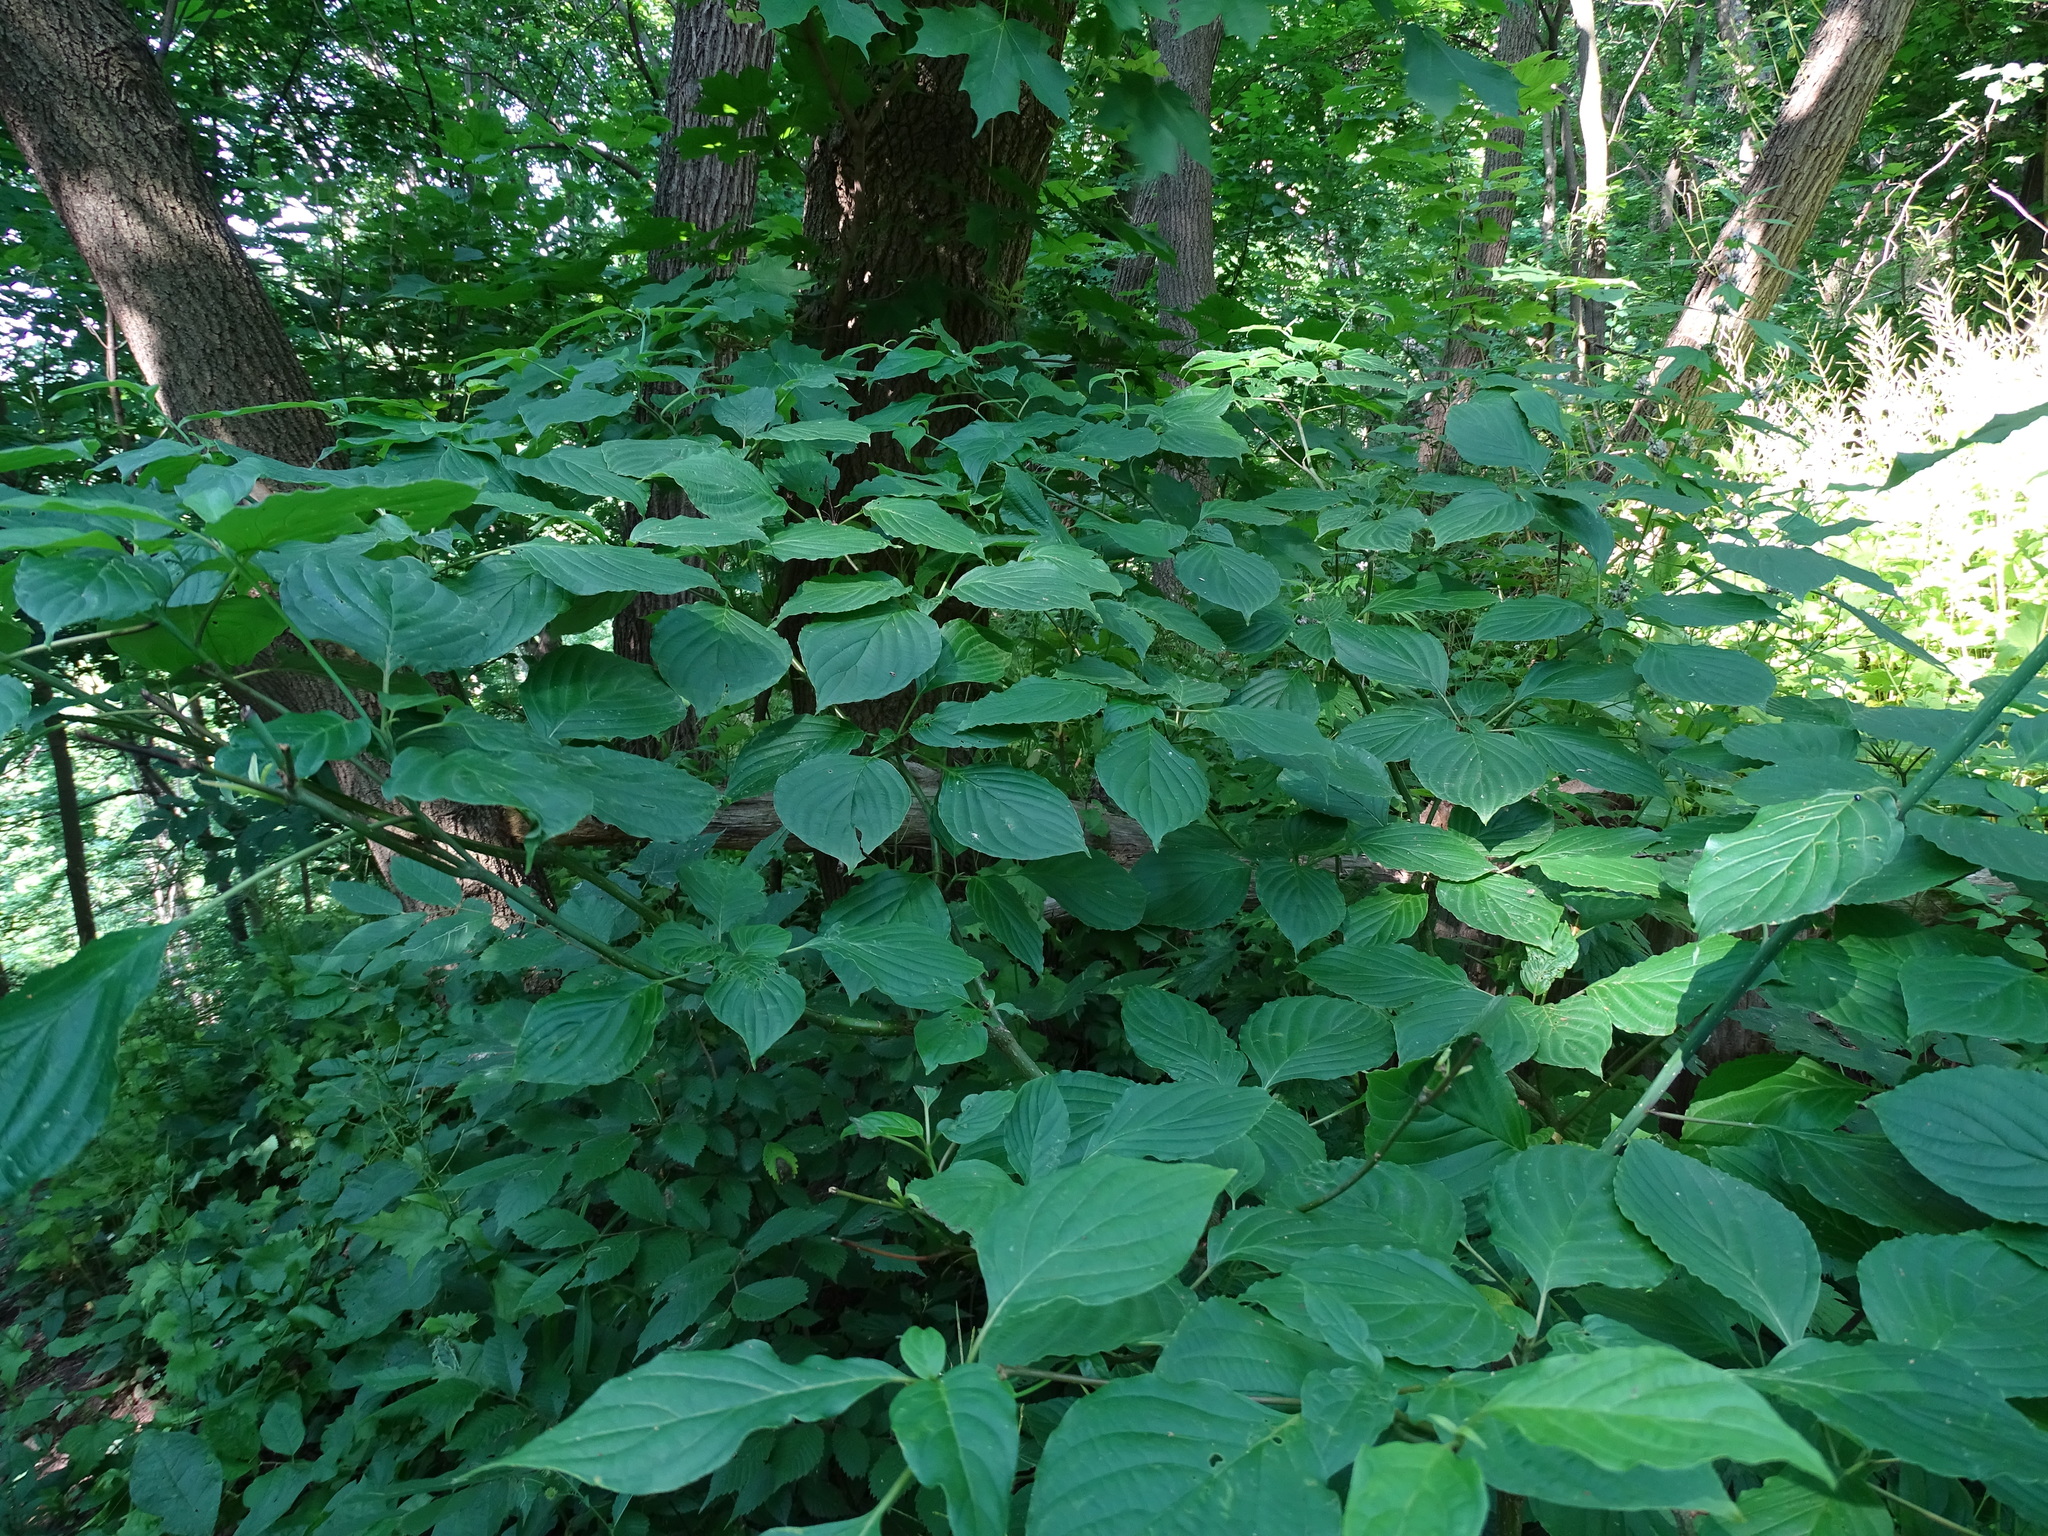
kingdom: Plantae
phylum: Tracheophyta
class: Magnoliopsida
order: Cornales
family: Cornaceae
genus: Cornus
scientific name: Cornus alternifolia
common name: Pagoda dogwood
